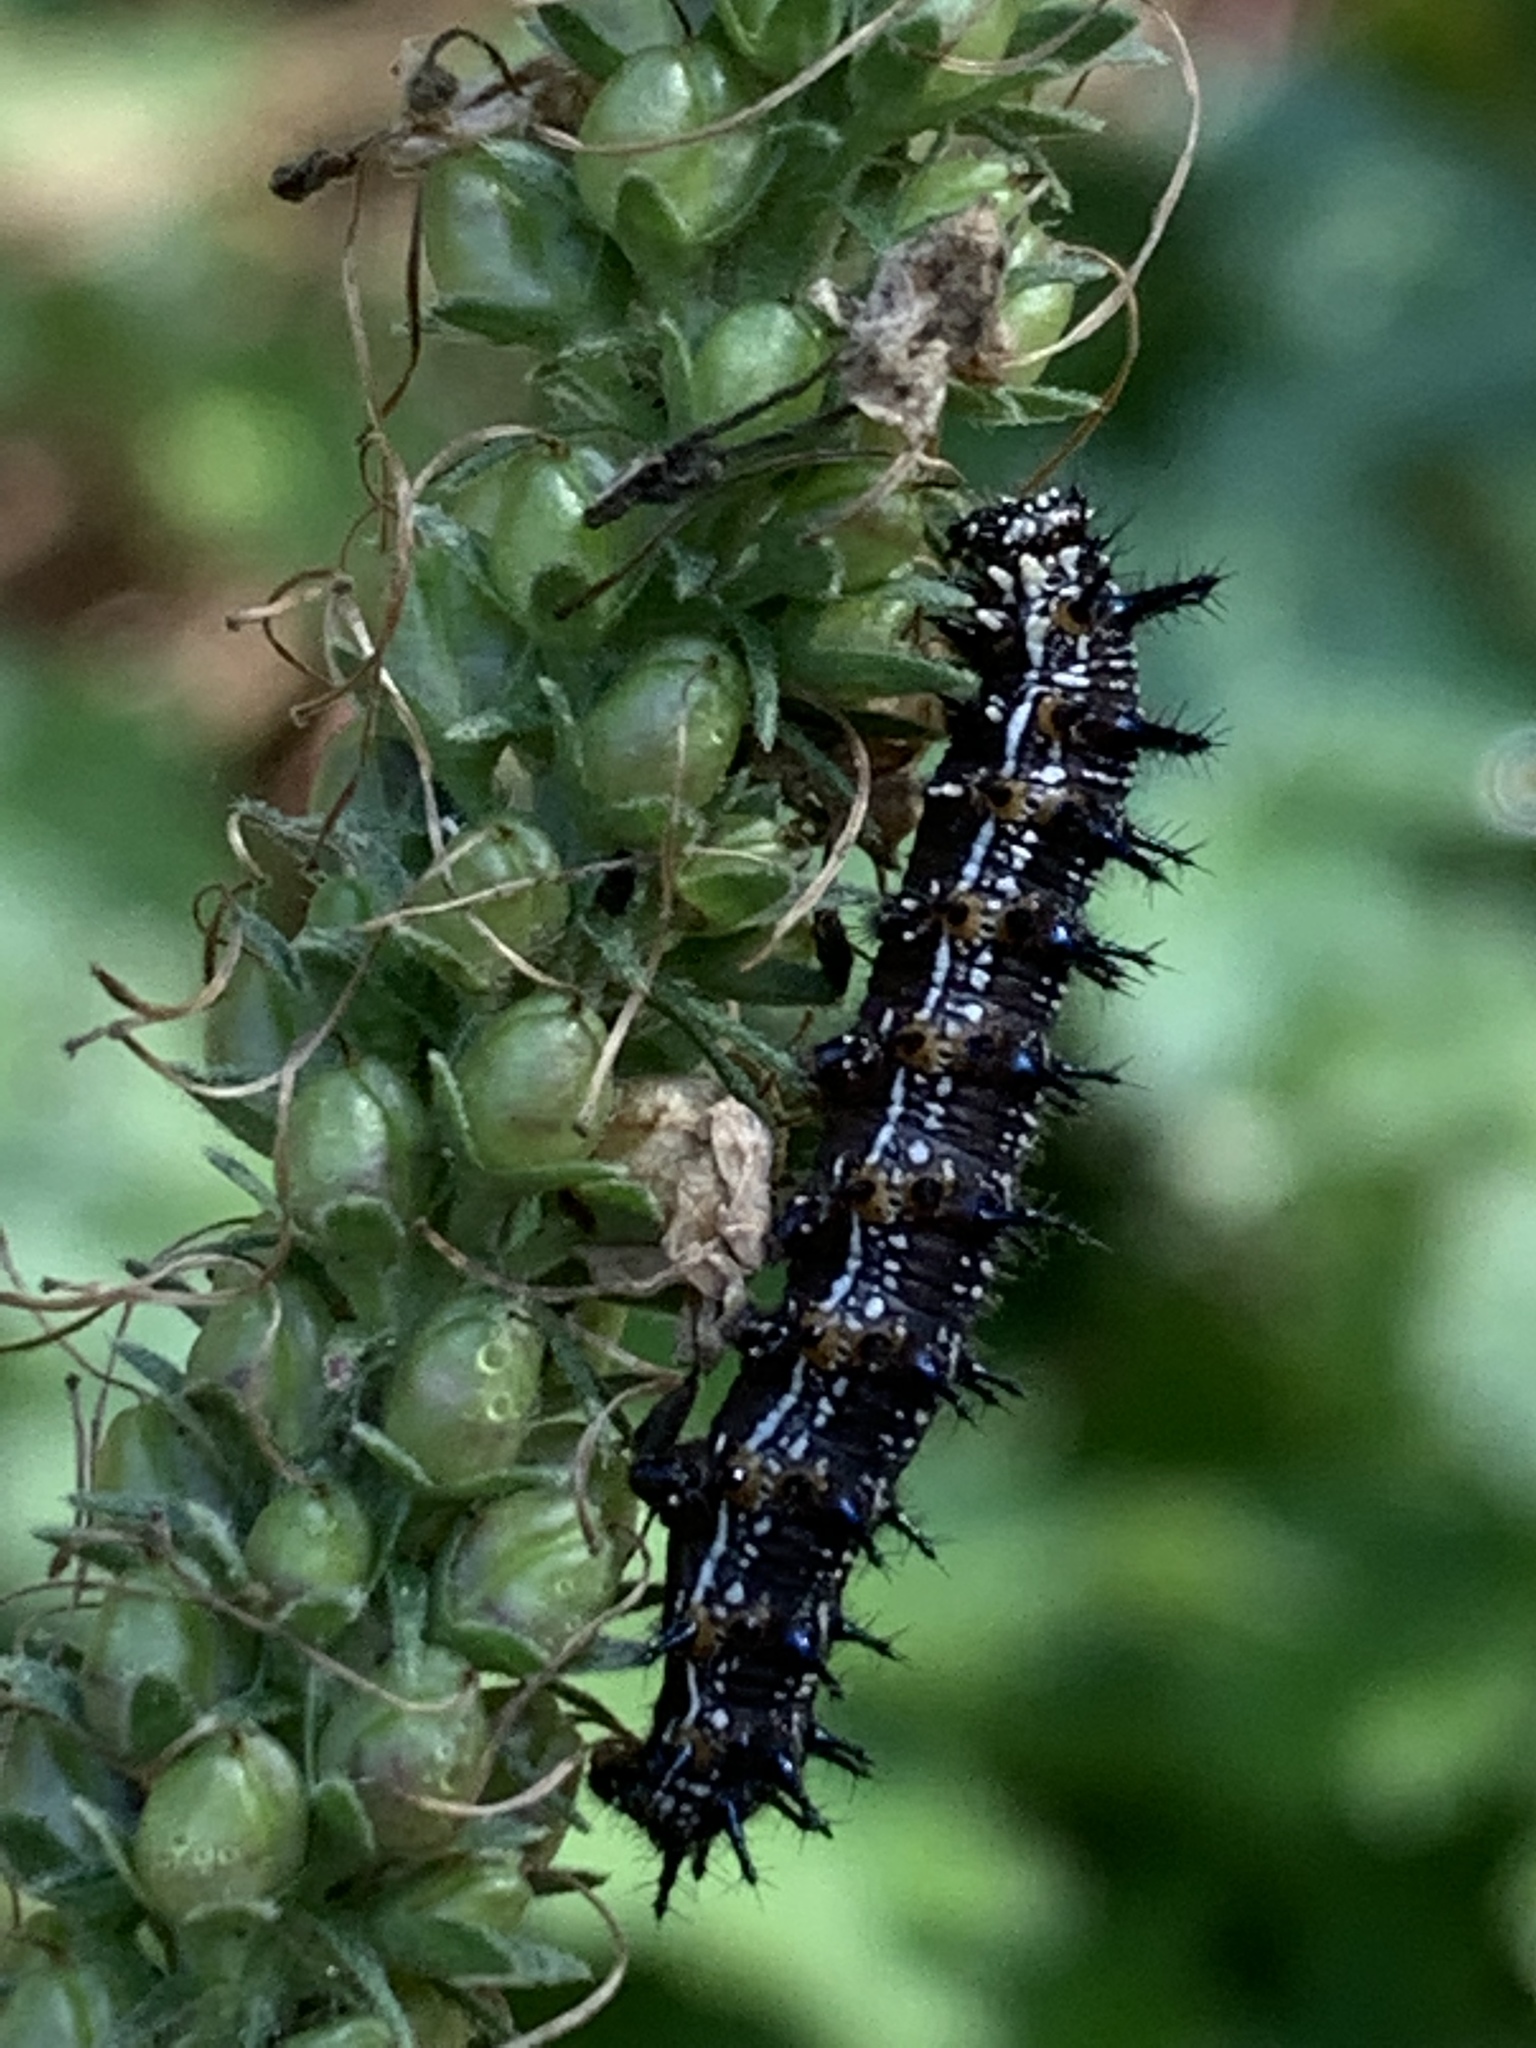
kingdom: Animalia
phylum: Arthropoda
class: Insecta
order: Lepidoptera
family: Nymphalidae
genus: Junonia
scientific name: Junonia coenia
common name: Common buckeye
